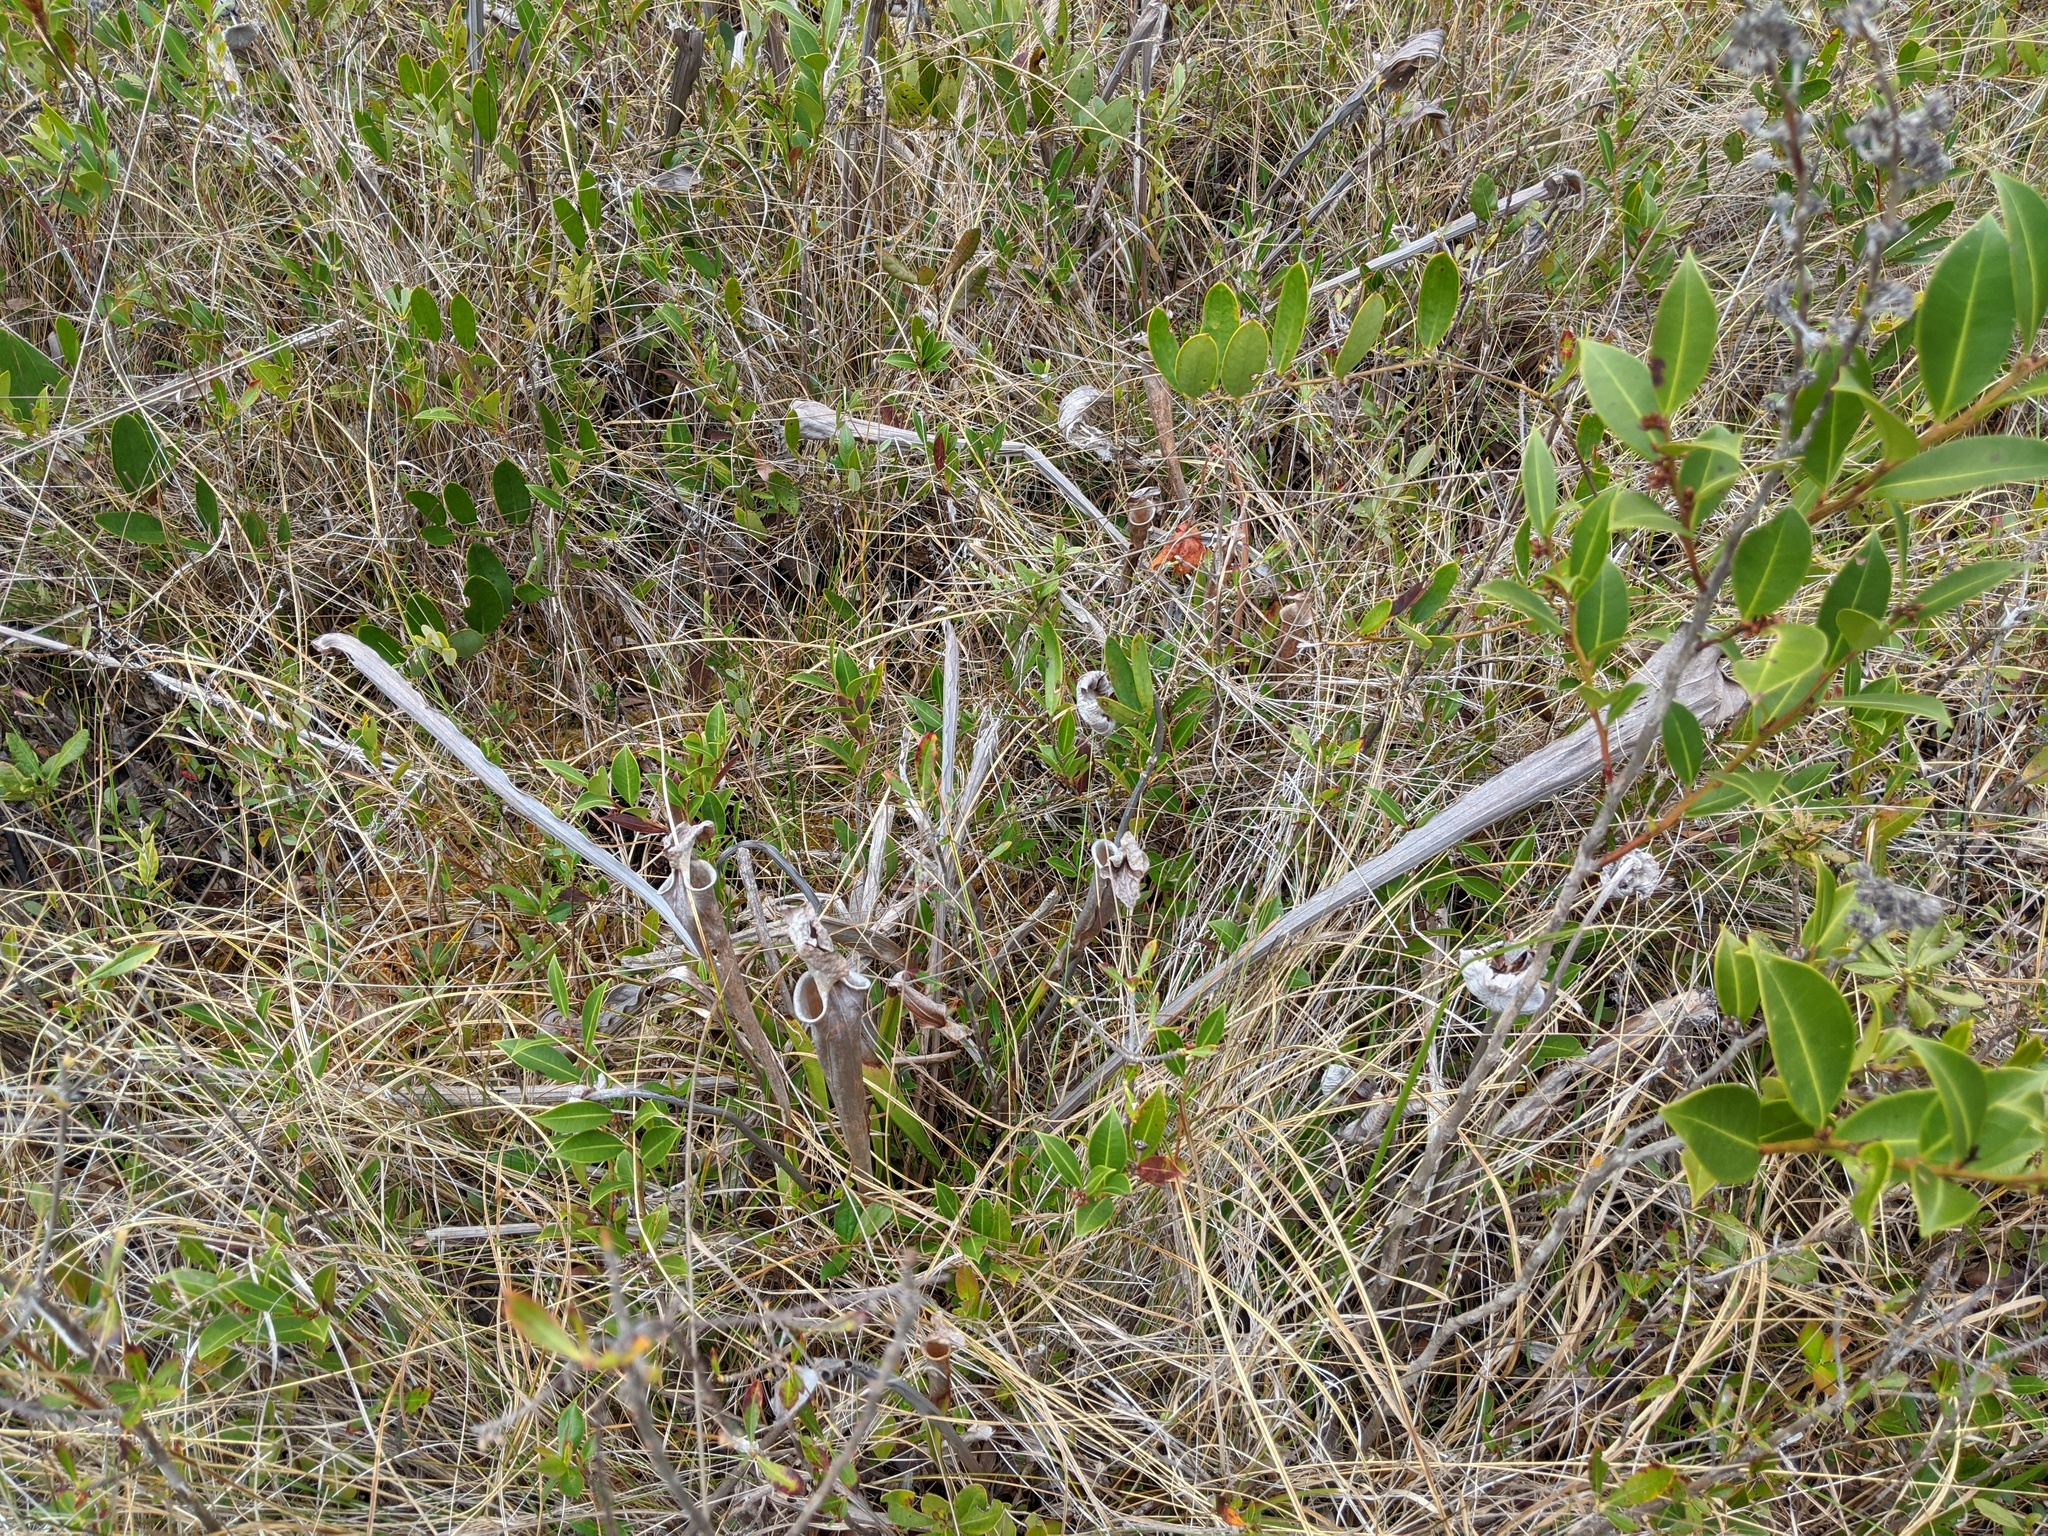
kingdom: Plantae
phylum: Tracheophyta
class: Magnoliopsida
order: Ericales
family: Sarraceniaceae
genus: Sarracenia
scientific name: Sarracenia flava
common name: Trumpets
